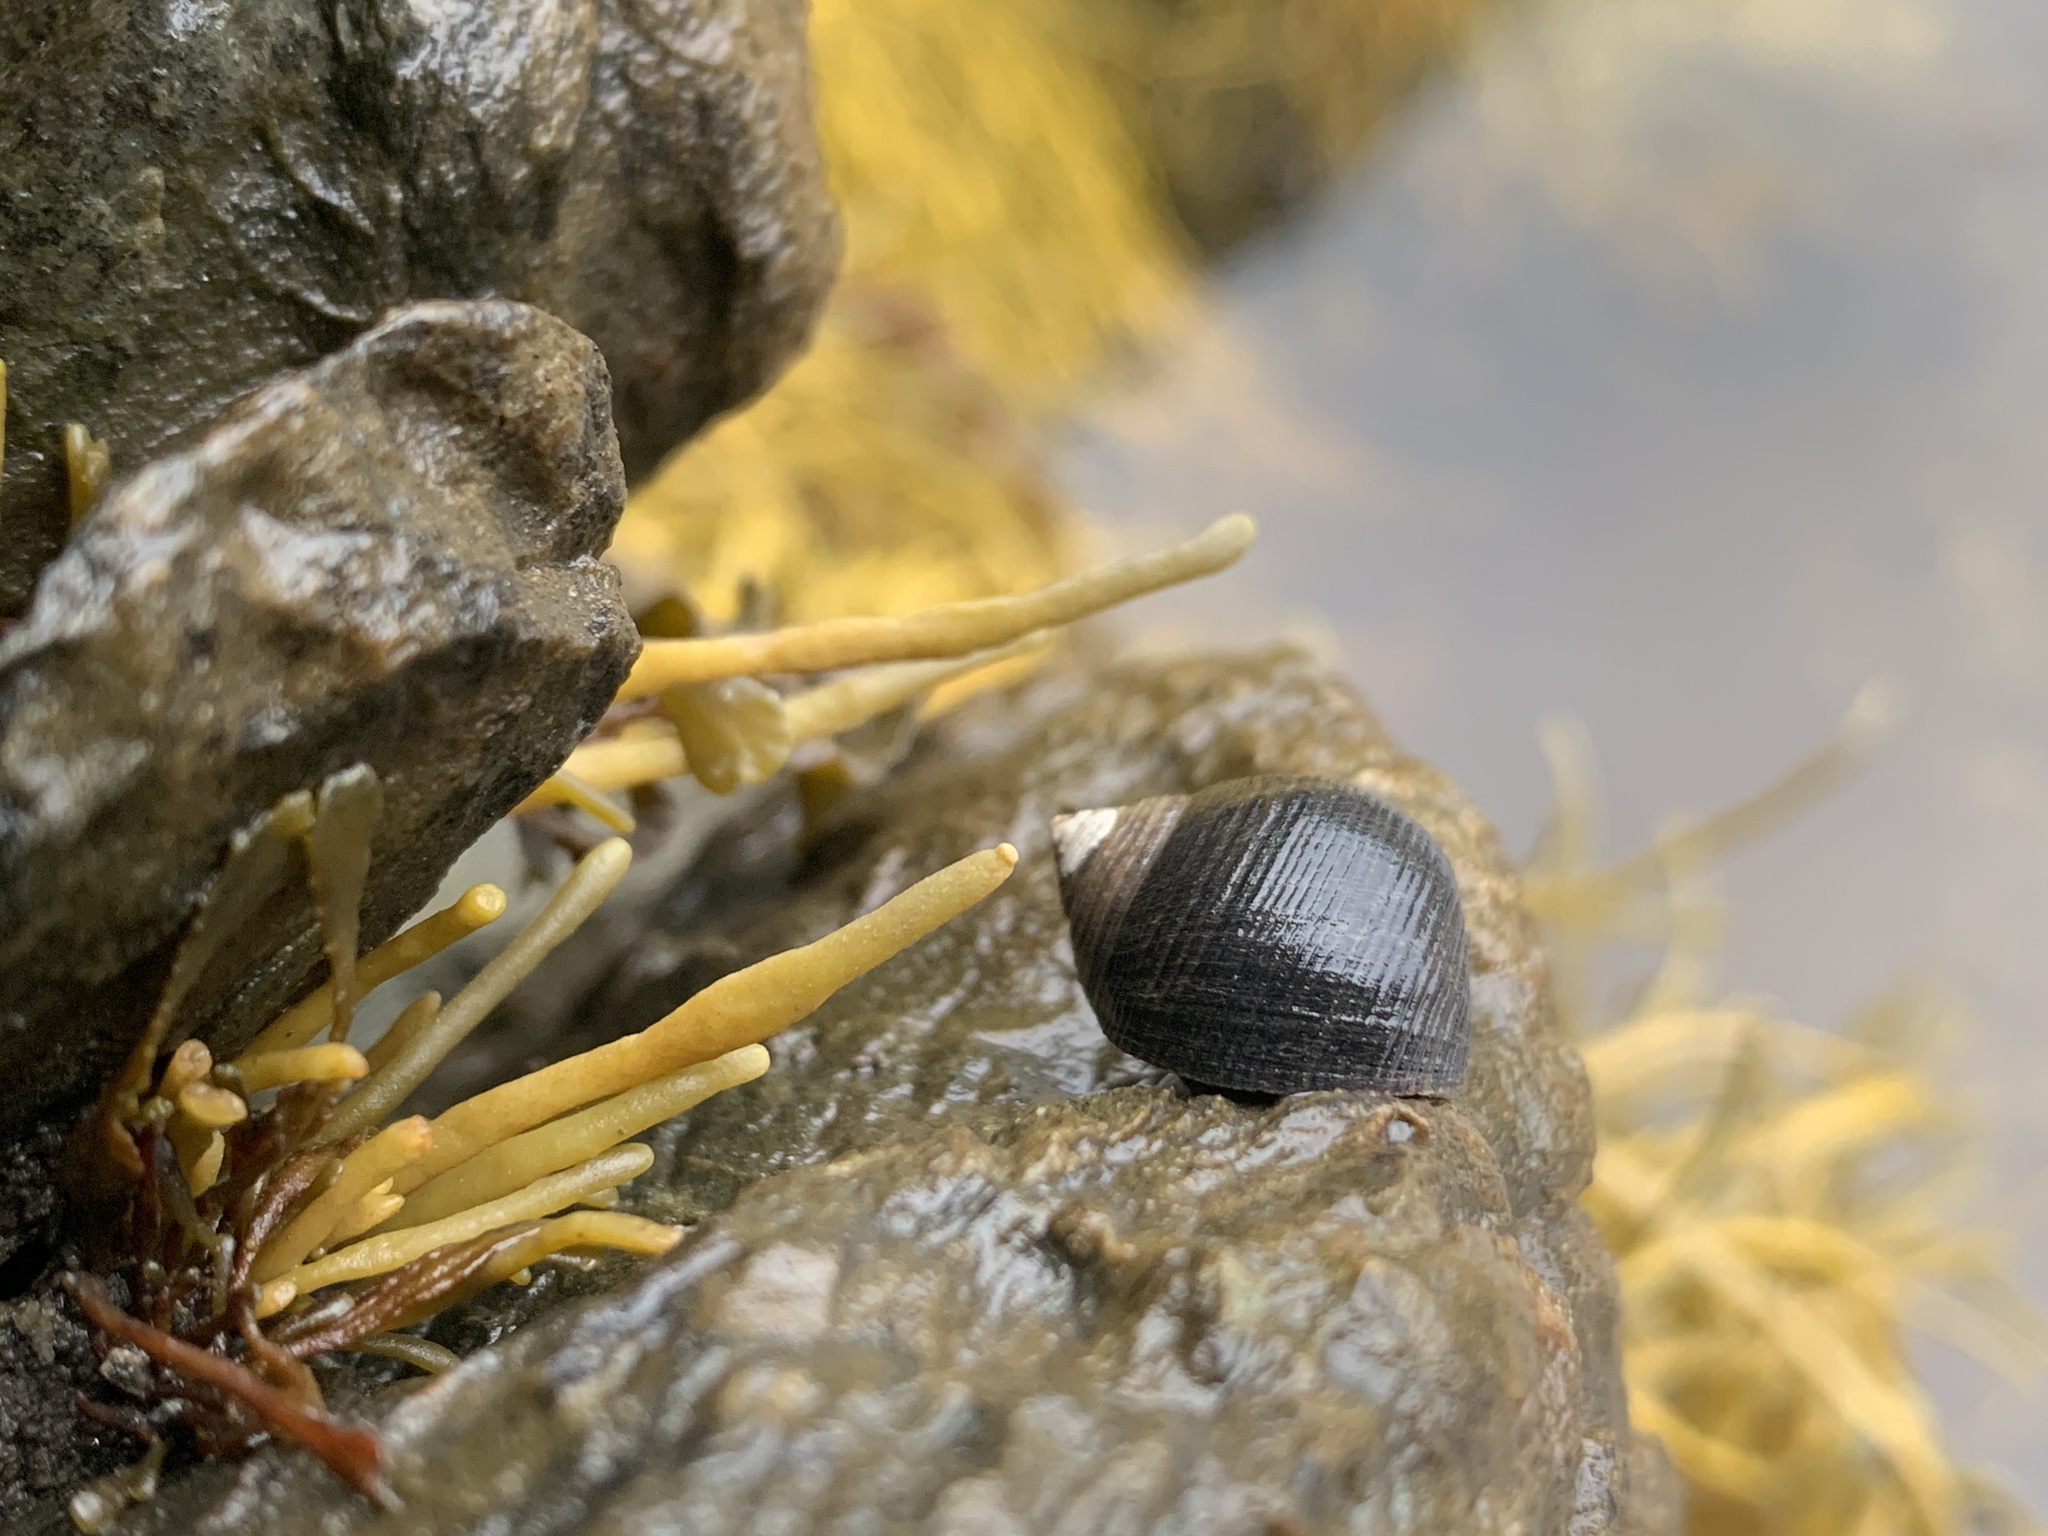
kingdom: Animalia
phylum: Mollusca
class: Gastropoda
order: Littorinimorpha
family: Littorinidae
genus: Littorina
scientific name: Littorina littorea
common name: Common periwinkle
